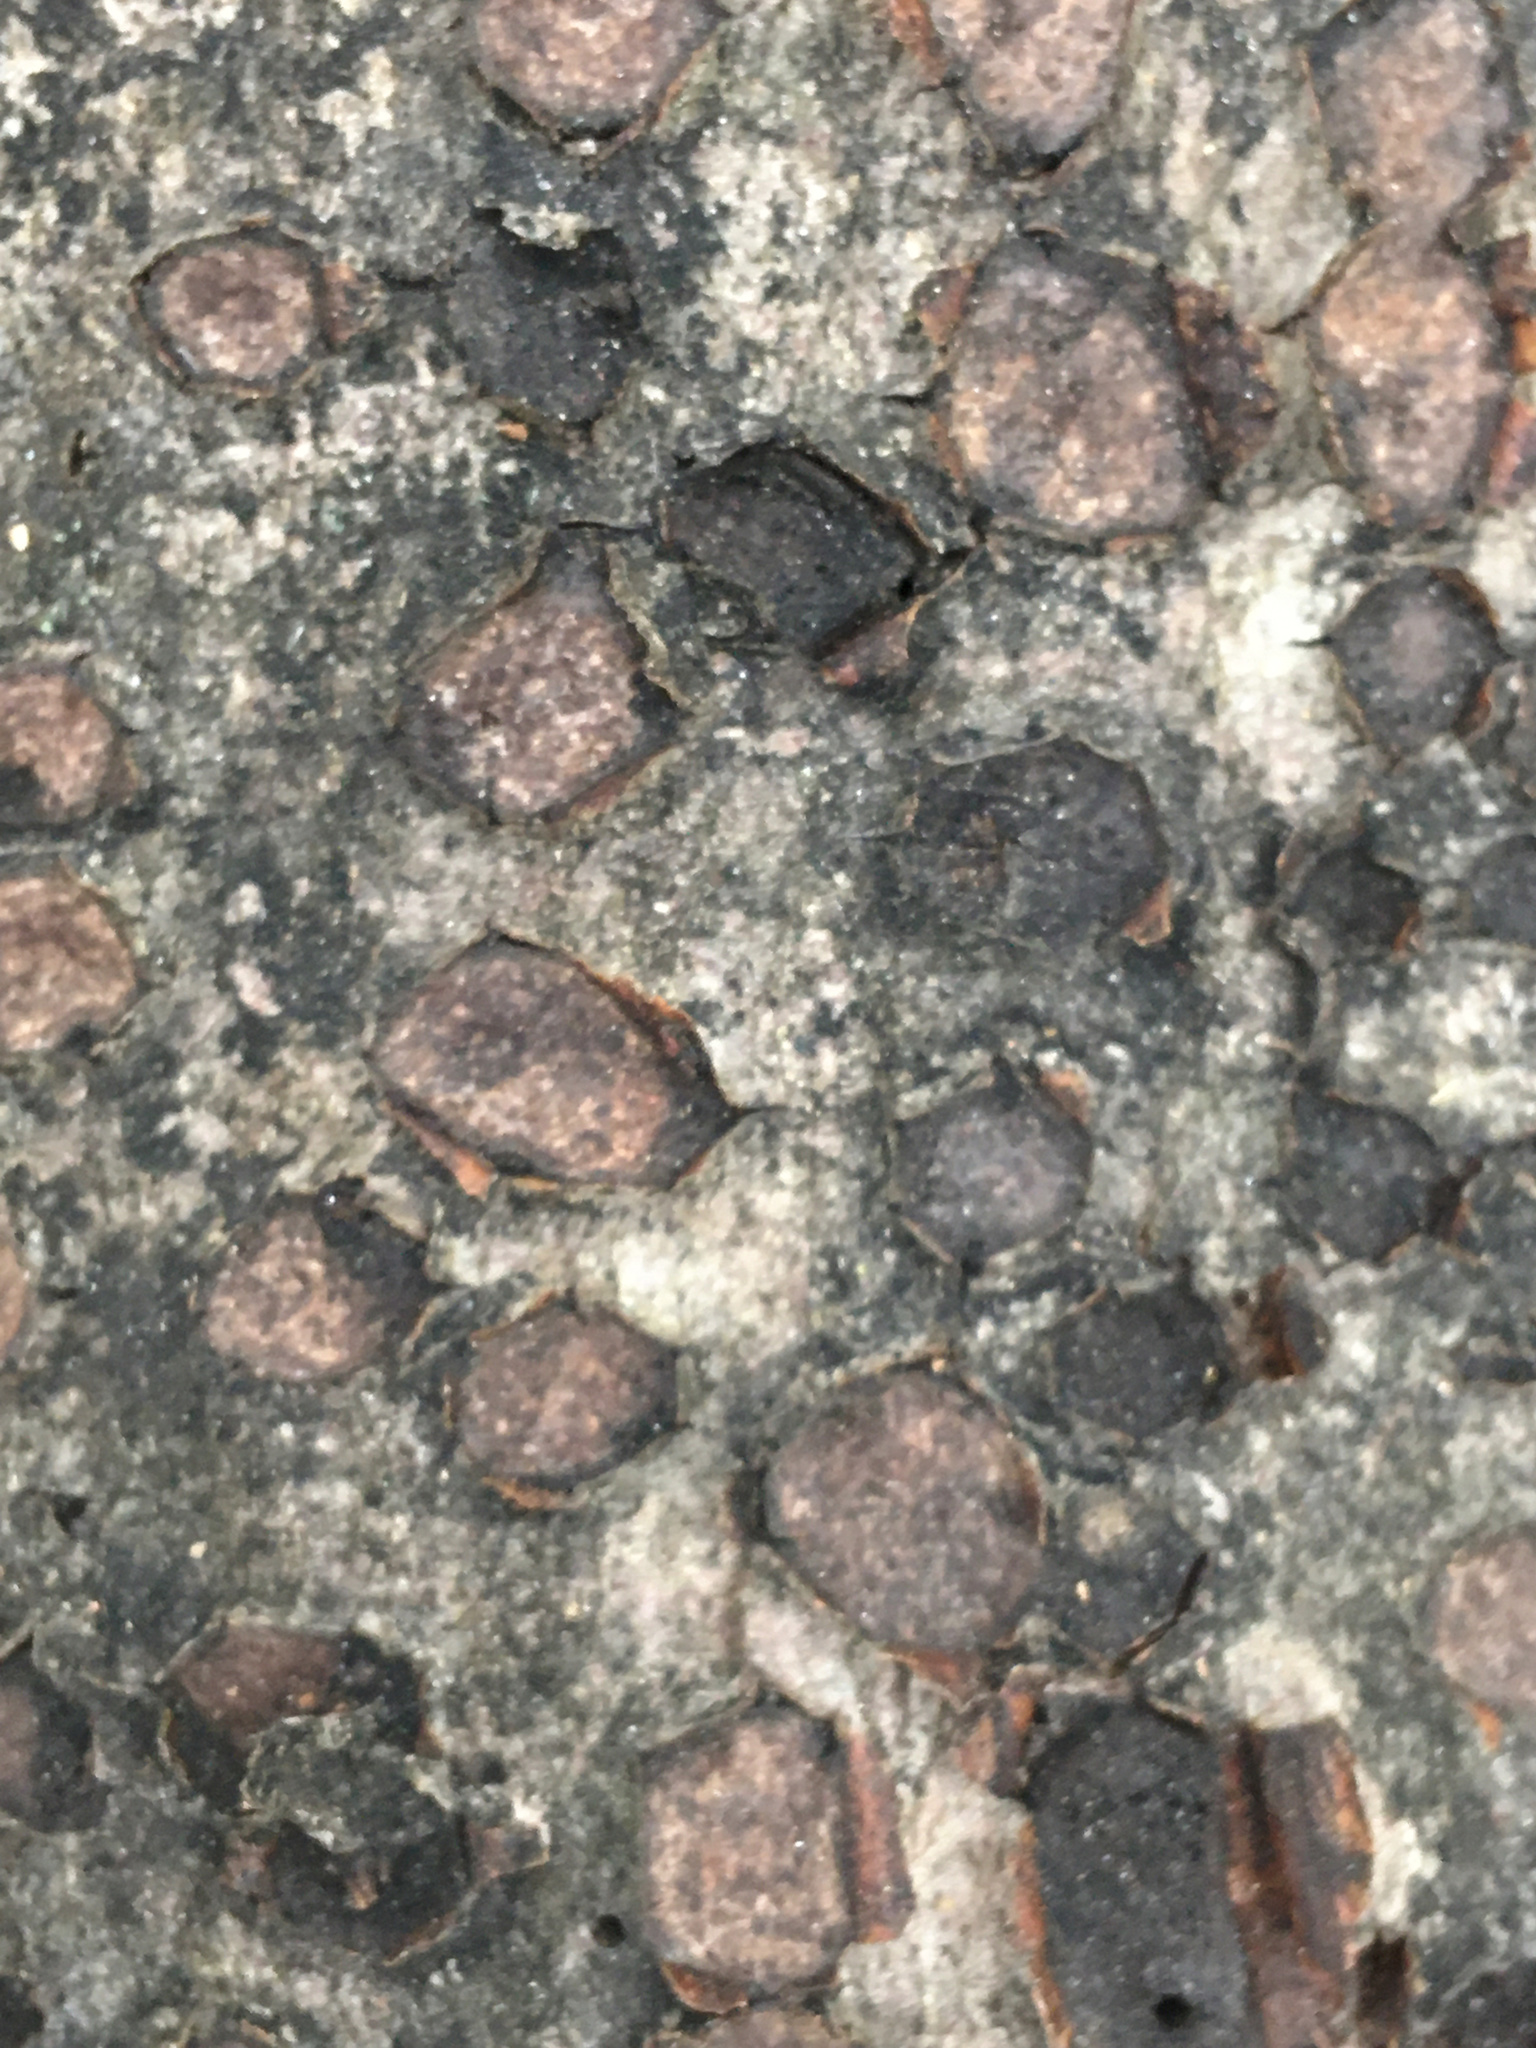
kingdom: Fungi
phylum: Ascomycota
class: Sordariomycetes
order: Xylariales
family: Graphostromataceae
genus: Biscogniauxia
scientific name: Biscogniauxia marginata
